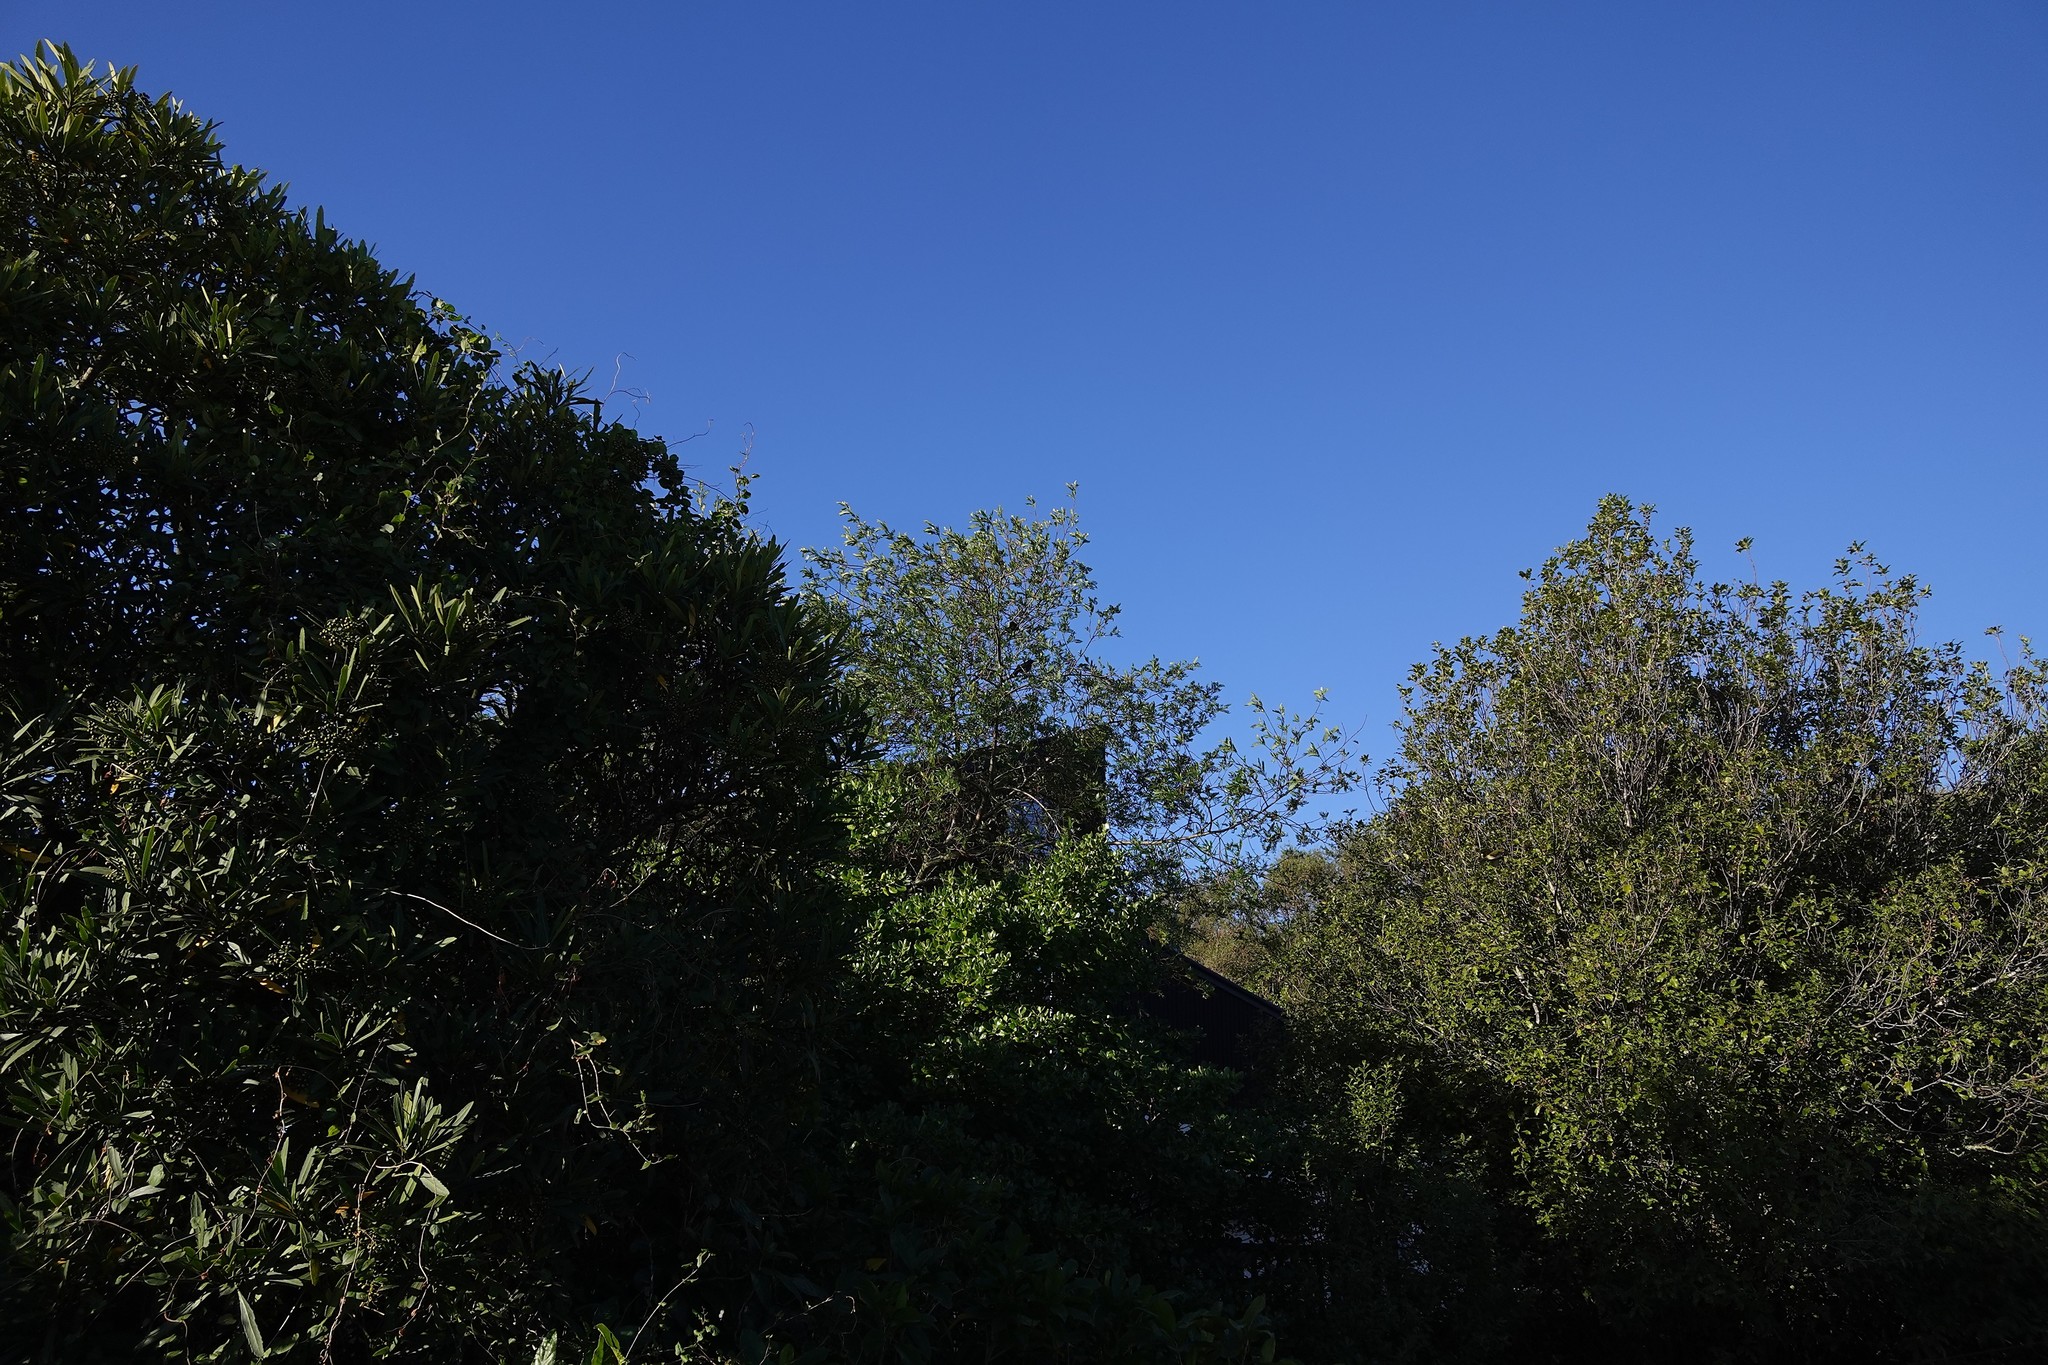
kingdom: Animalia
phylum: Chordata
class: Aves
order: Passeriformes
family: Turdidae
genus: Turdus
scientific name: Turdus merula
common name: Common blackbird
